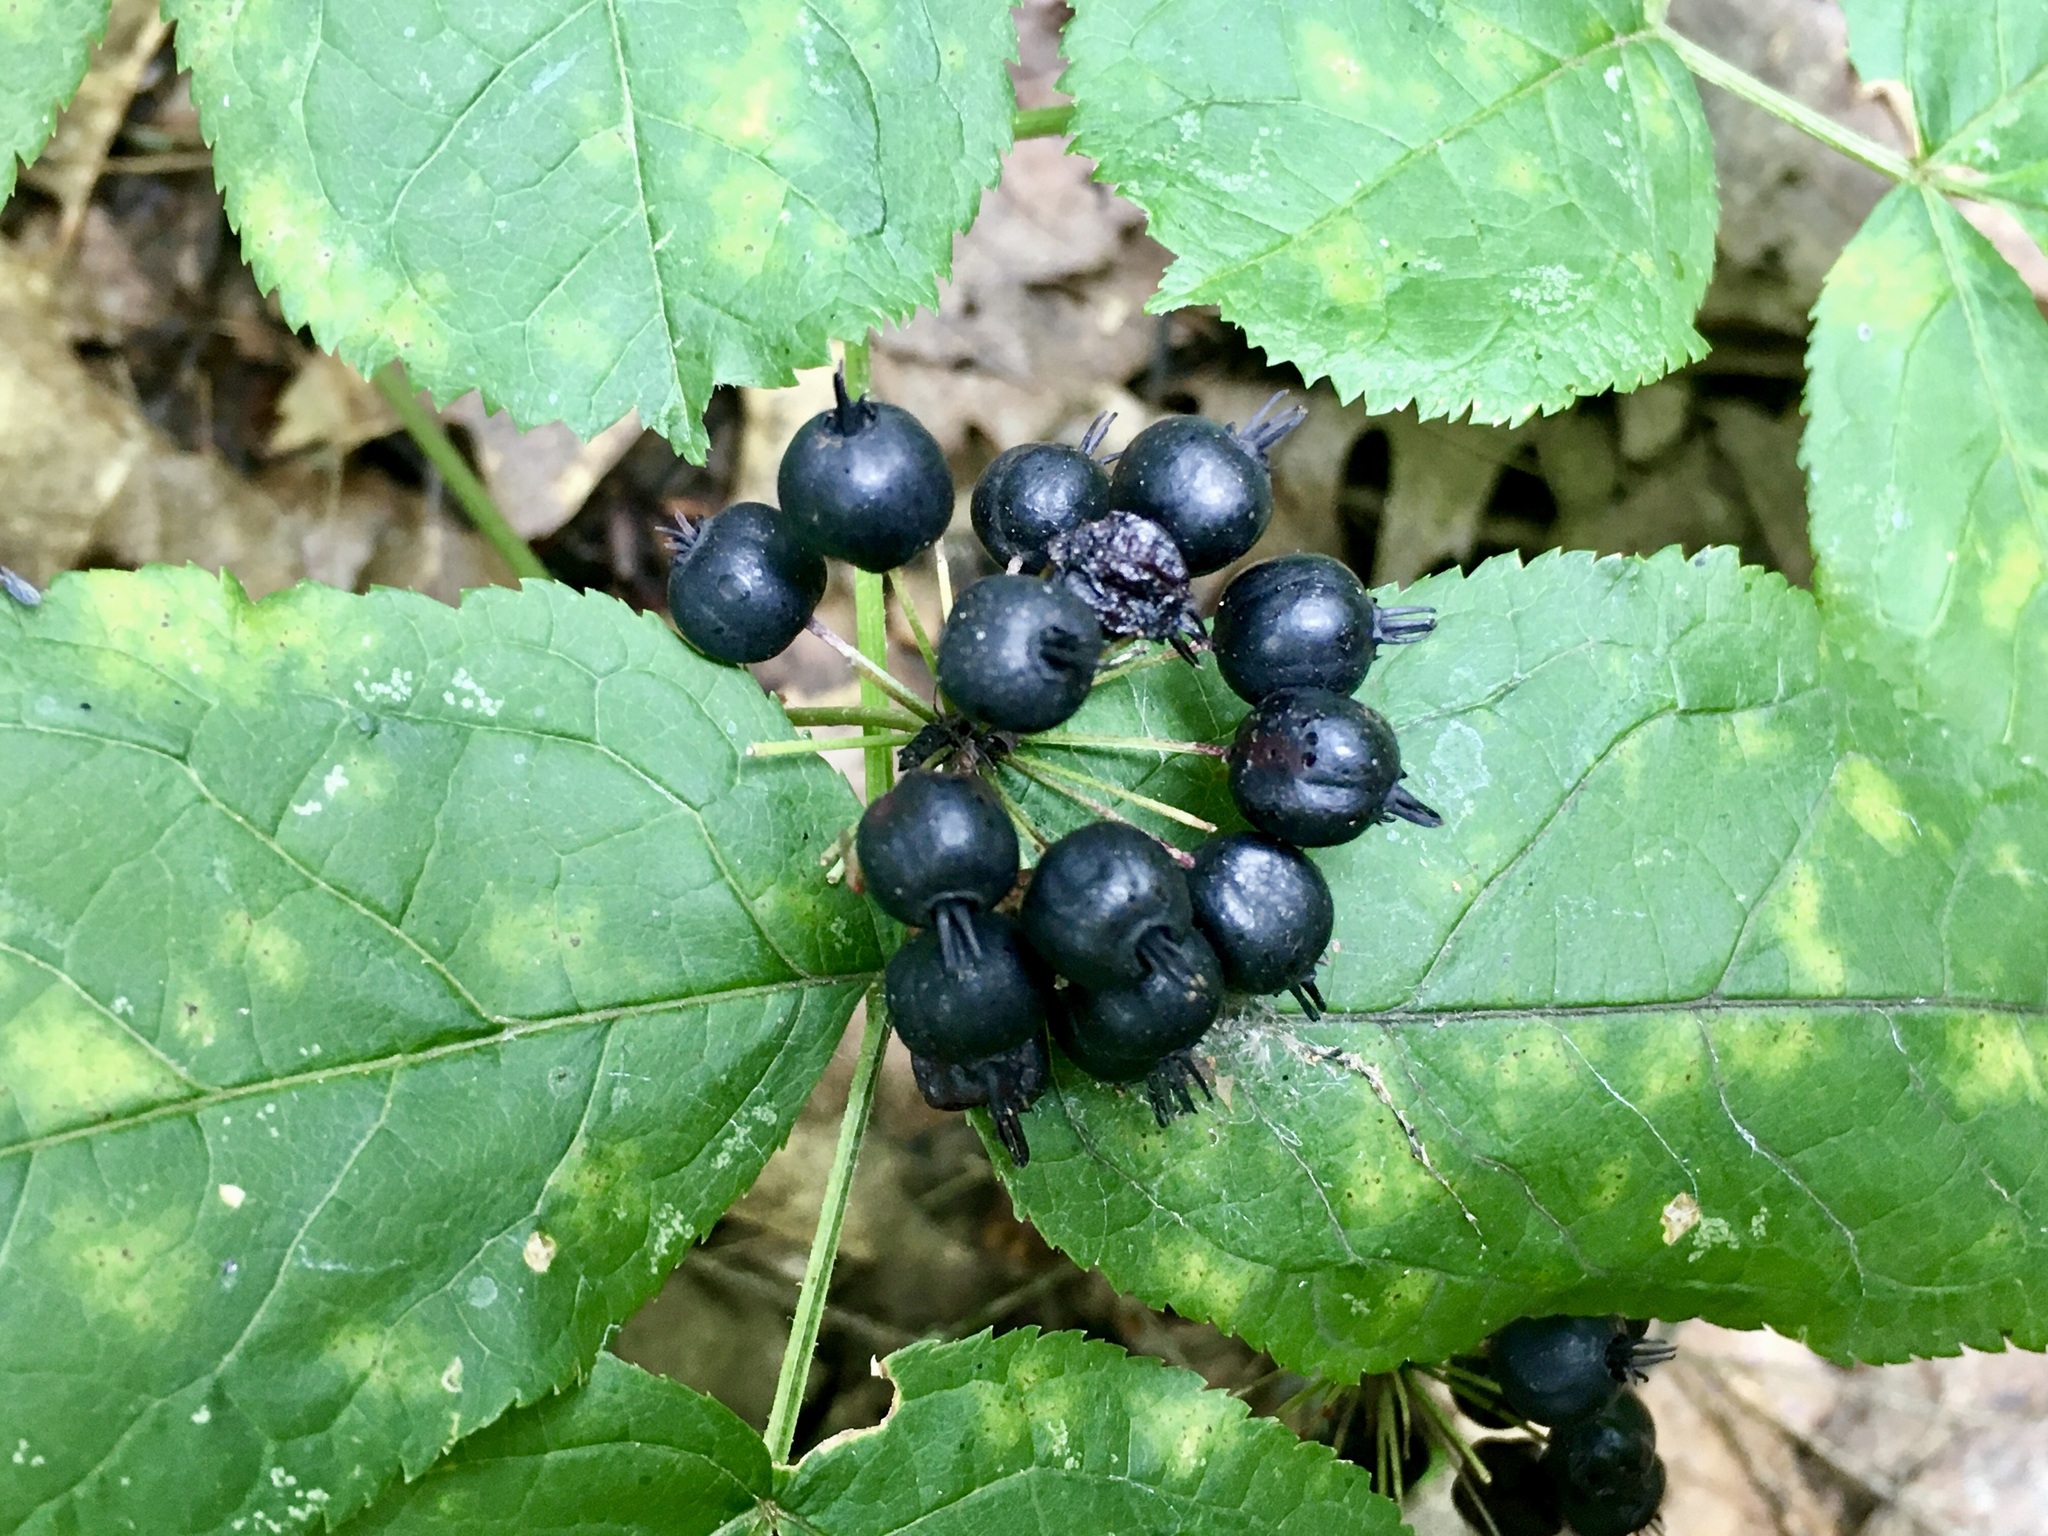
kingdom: Plantae
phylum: Tracheophyta
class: Magnoliopsida
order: Apiales
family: Araliaceae
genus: Aralia
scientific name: Aralia nudicaulis
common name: Wild sarsaparilla
